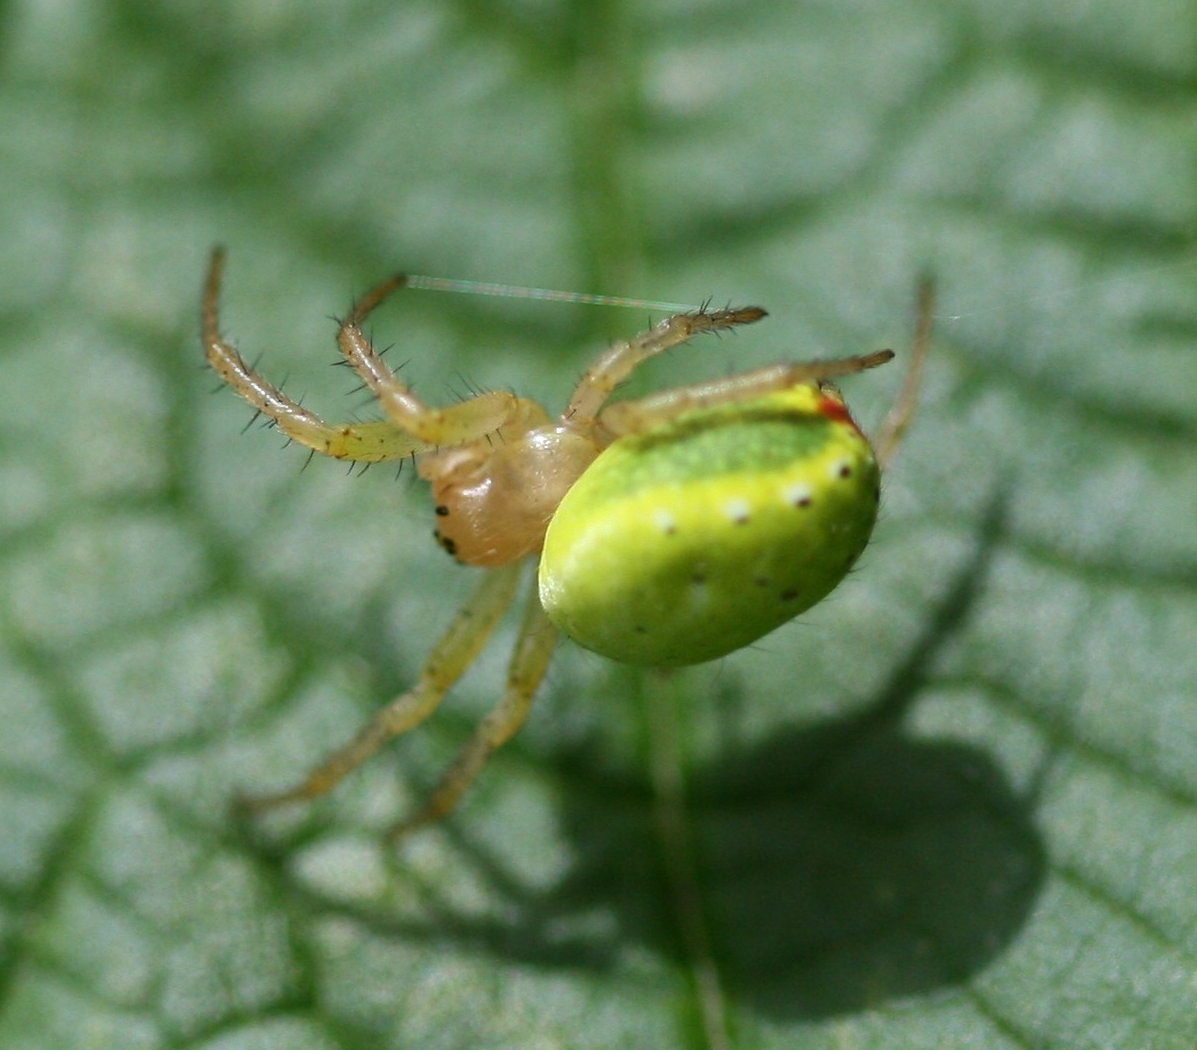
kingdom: Animalia
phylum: Arthropoda
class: Arachnida
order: Araneae
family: Araneidae
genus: Araniella
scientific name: Araniella
